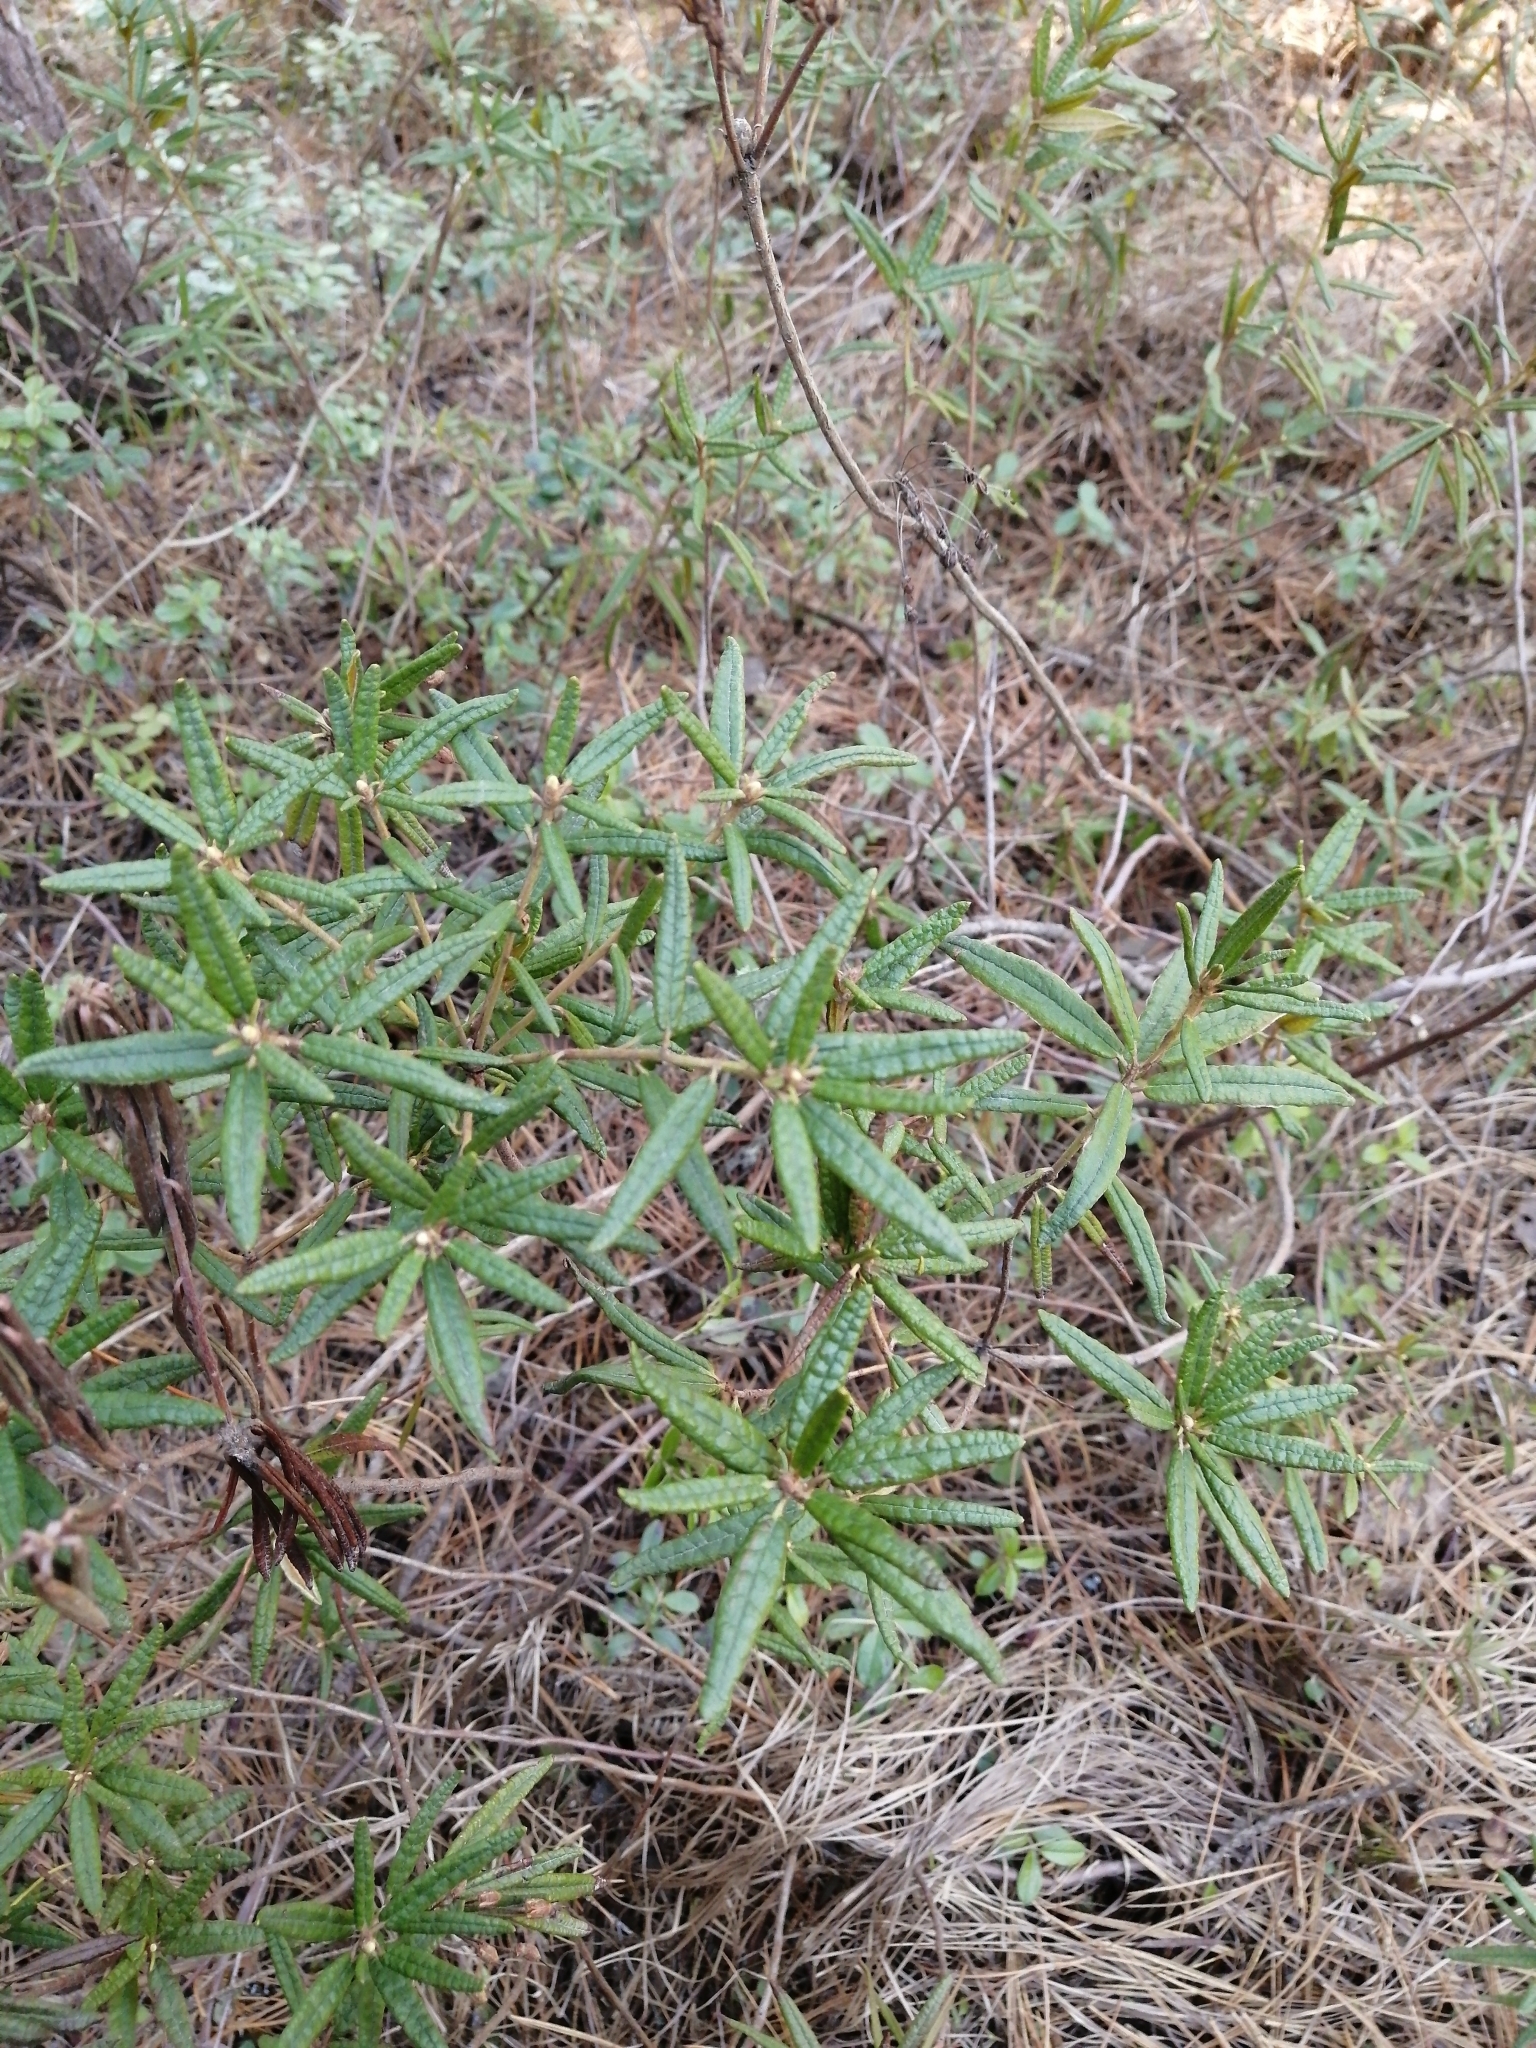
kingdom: Plantae
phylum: Tracheophyta
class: Magnoliopsida
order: Ericales
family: Ericaceae
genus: Rhododendron
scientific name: Rhododendron tomentosum
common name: Marsh labrador tea
